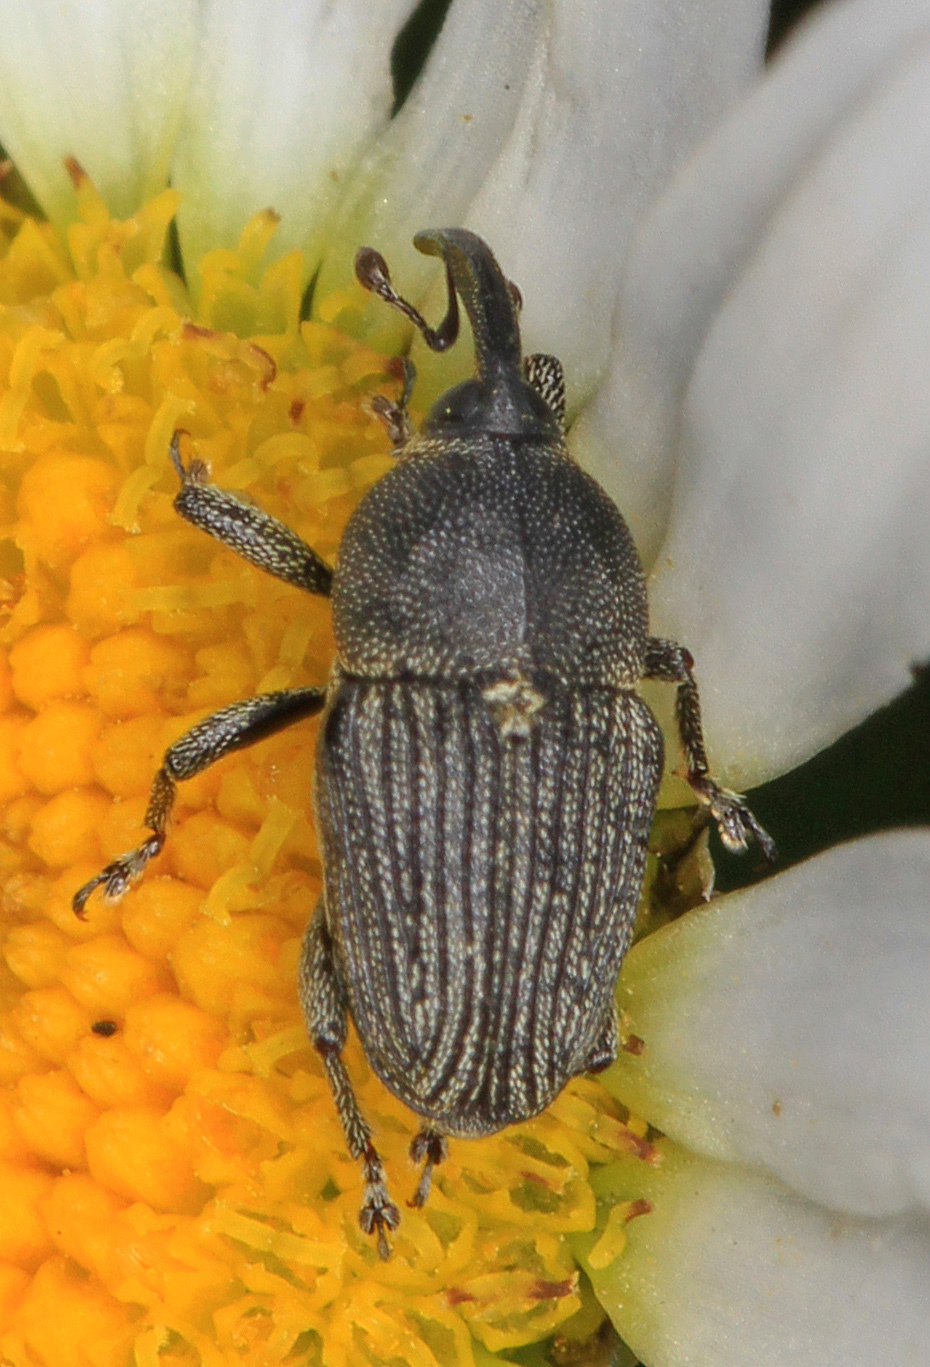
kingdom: Animalia
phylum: Arthropoda
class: Insecta
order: Coleoptera
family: Curculionidae
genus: Odontocorynus
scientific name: Odontocorynus salebrosus
